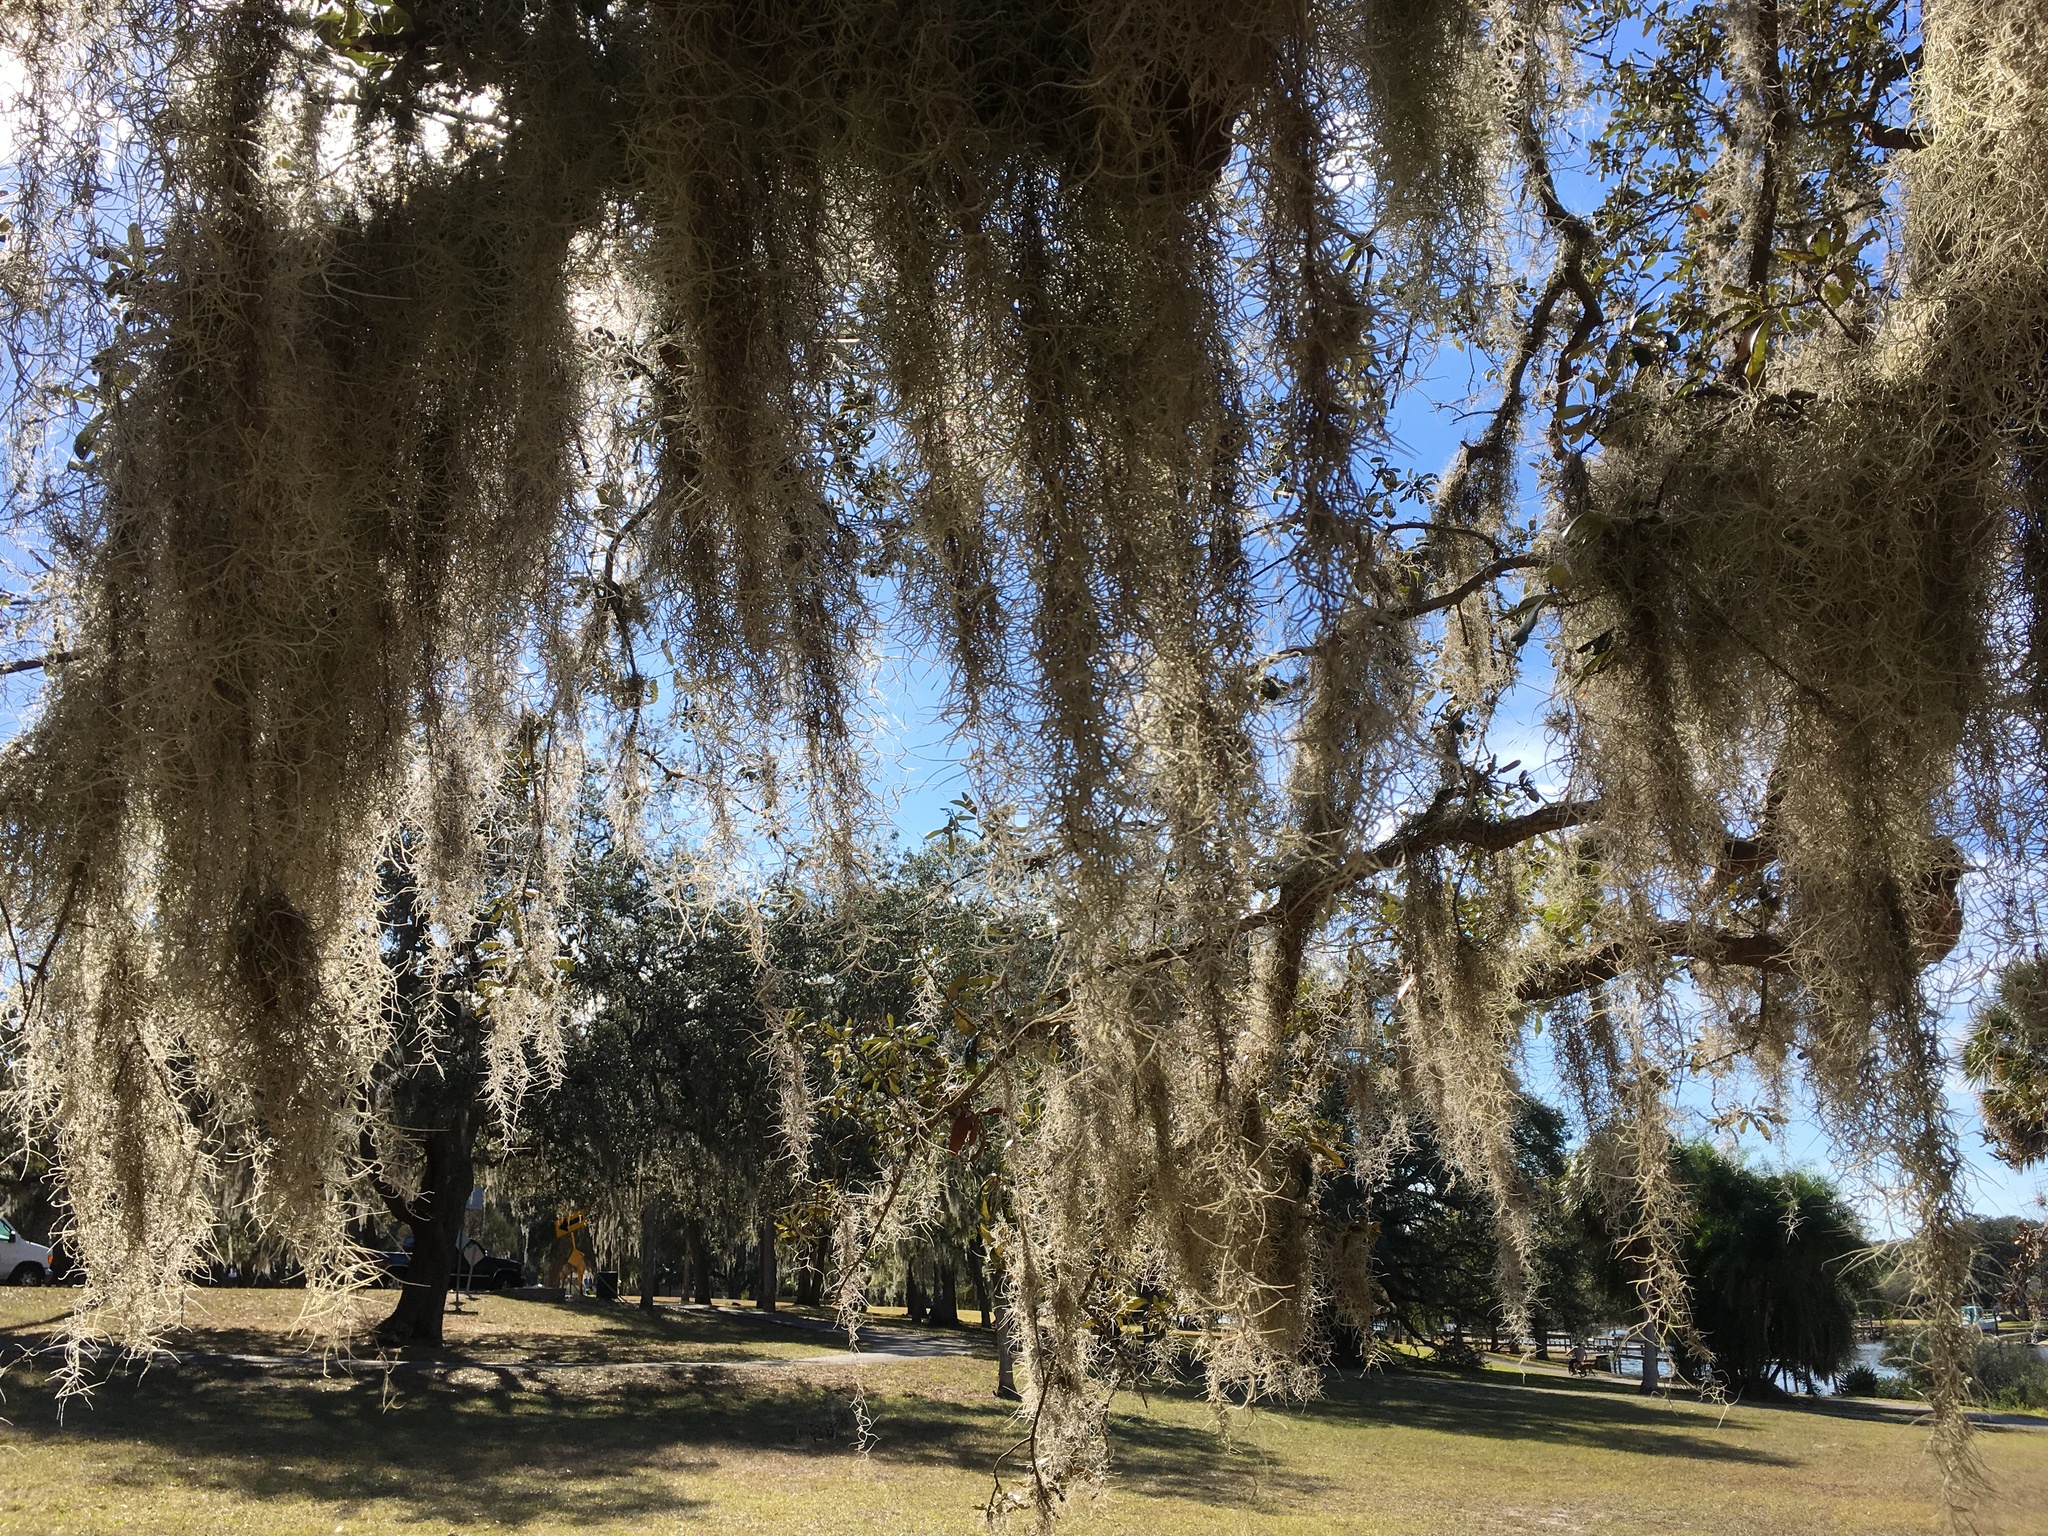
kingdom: Plantae
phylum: Tracheophyta
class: Liliopsida
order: Poales
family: Bromeliaceae
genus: Tillandsia
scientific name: Tillandsia usneoides
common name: Spanish moss
